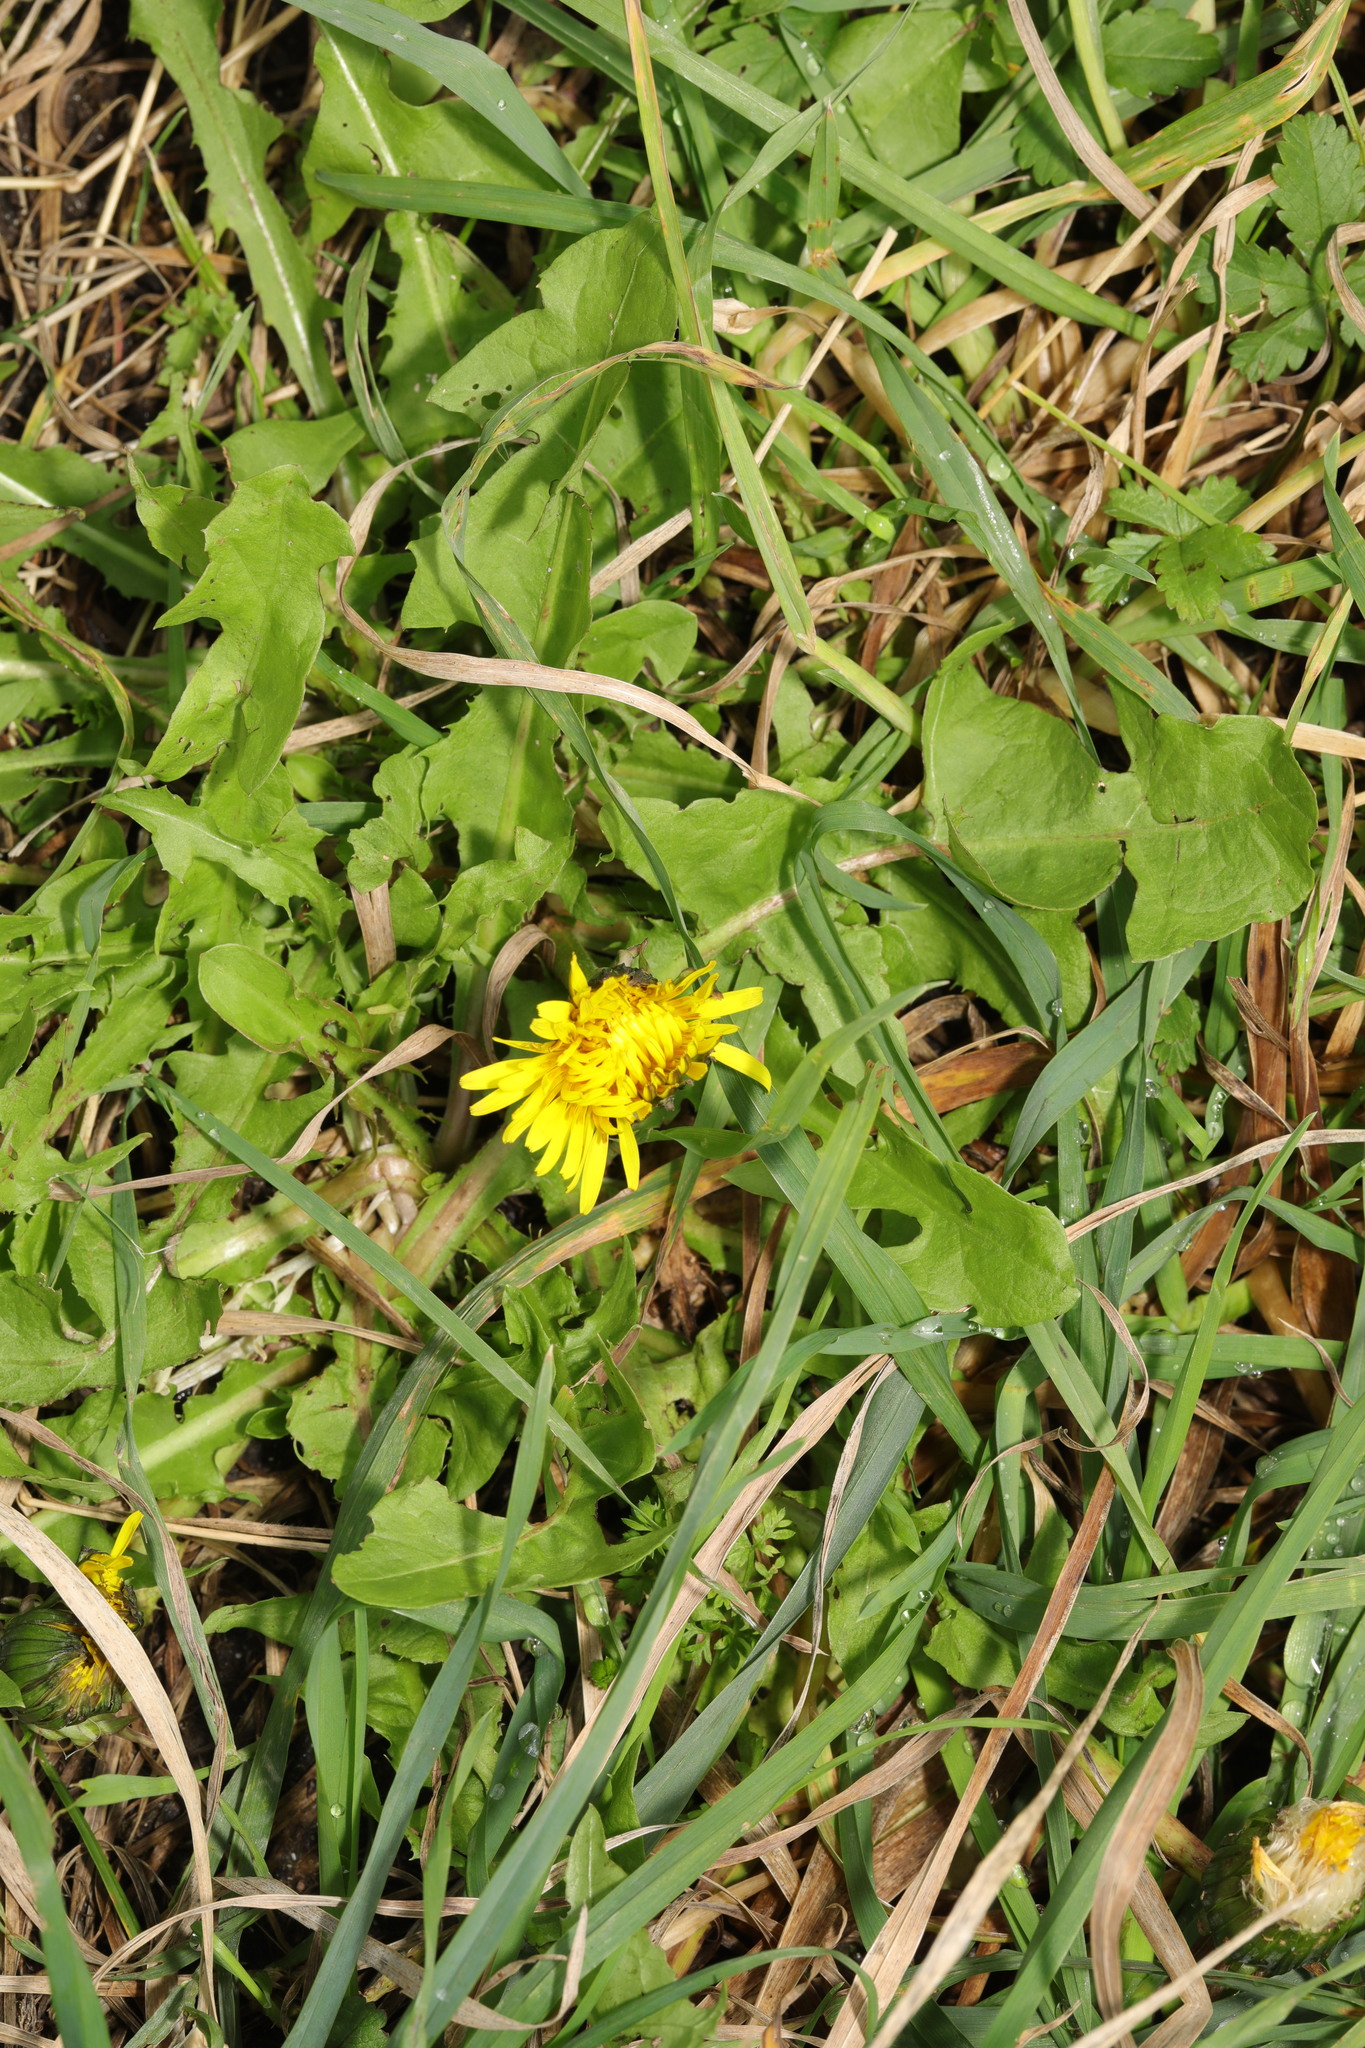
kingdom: Plantae
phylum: Tracheophyta
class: Magnoliopsida
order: Asterales
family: Asteraceae
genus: Taraxacum
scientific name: Taraxacum officinale
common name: Common dandelion
